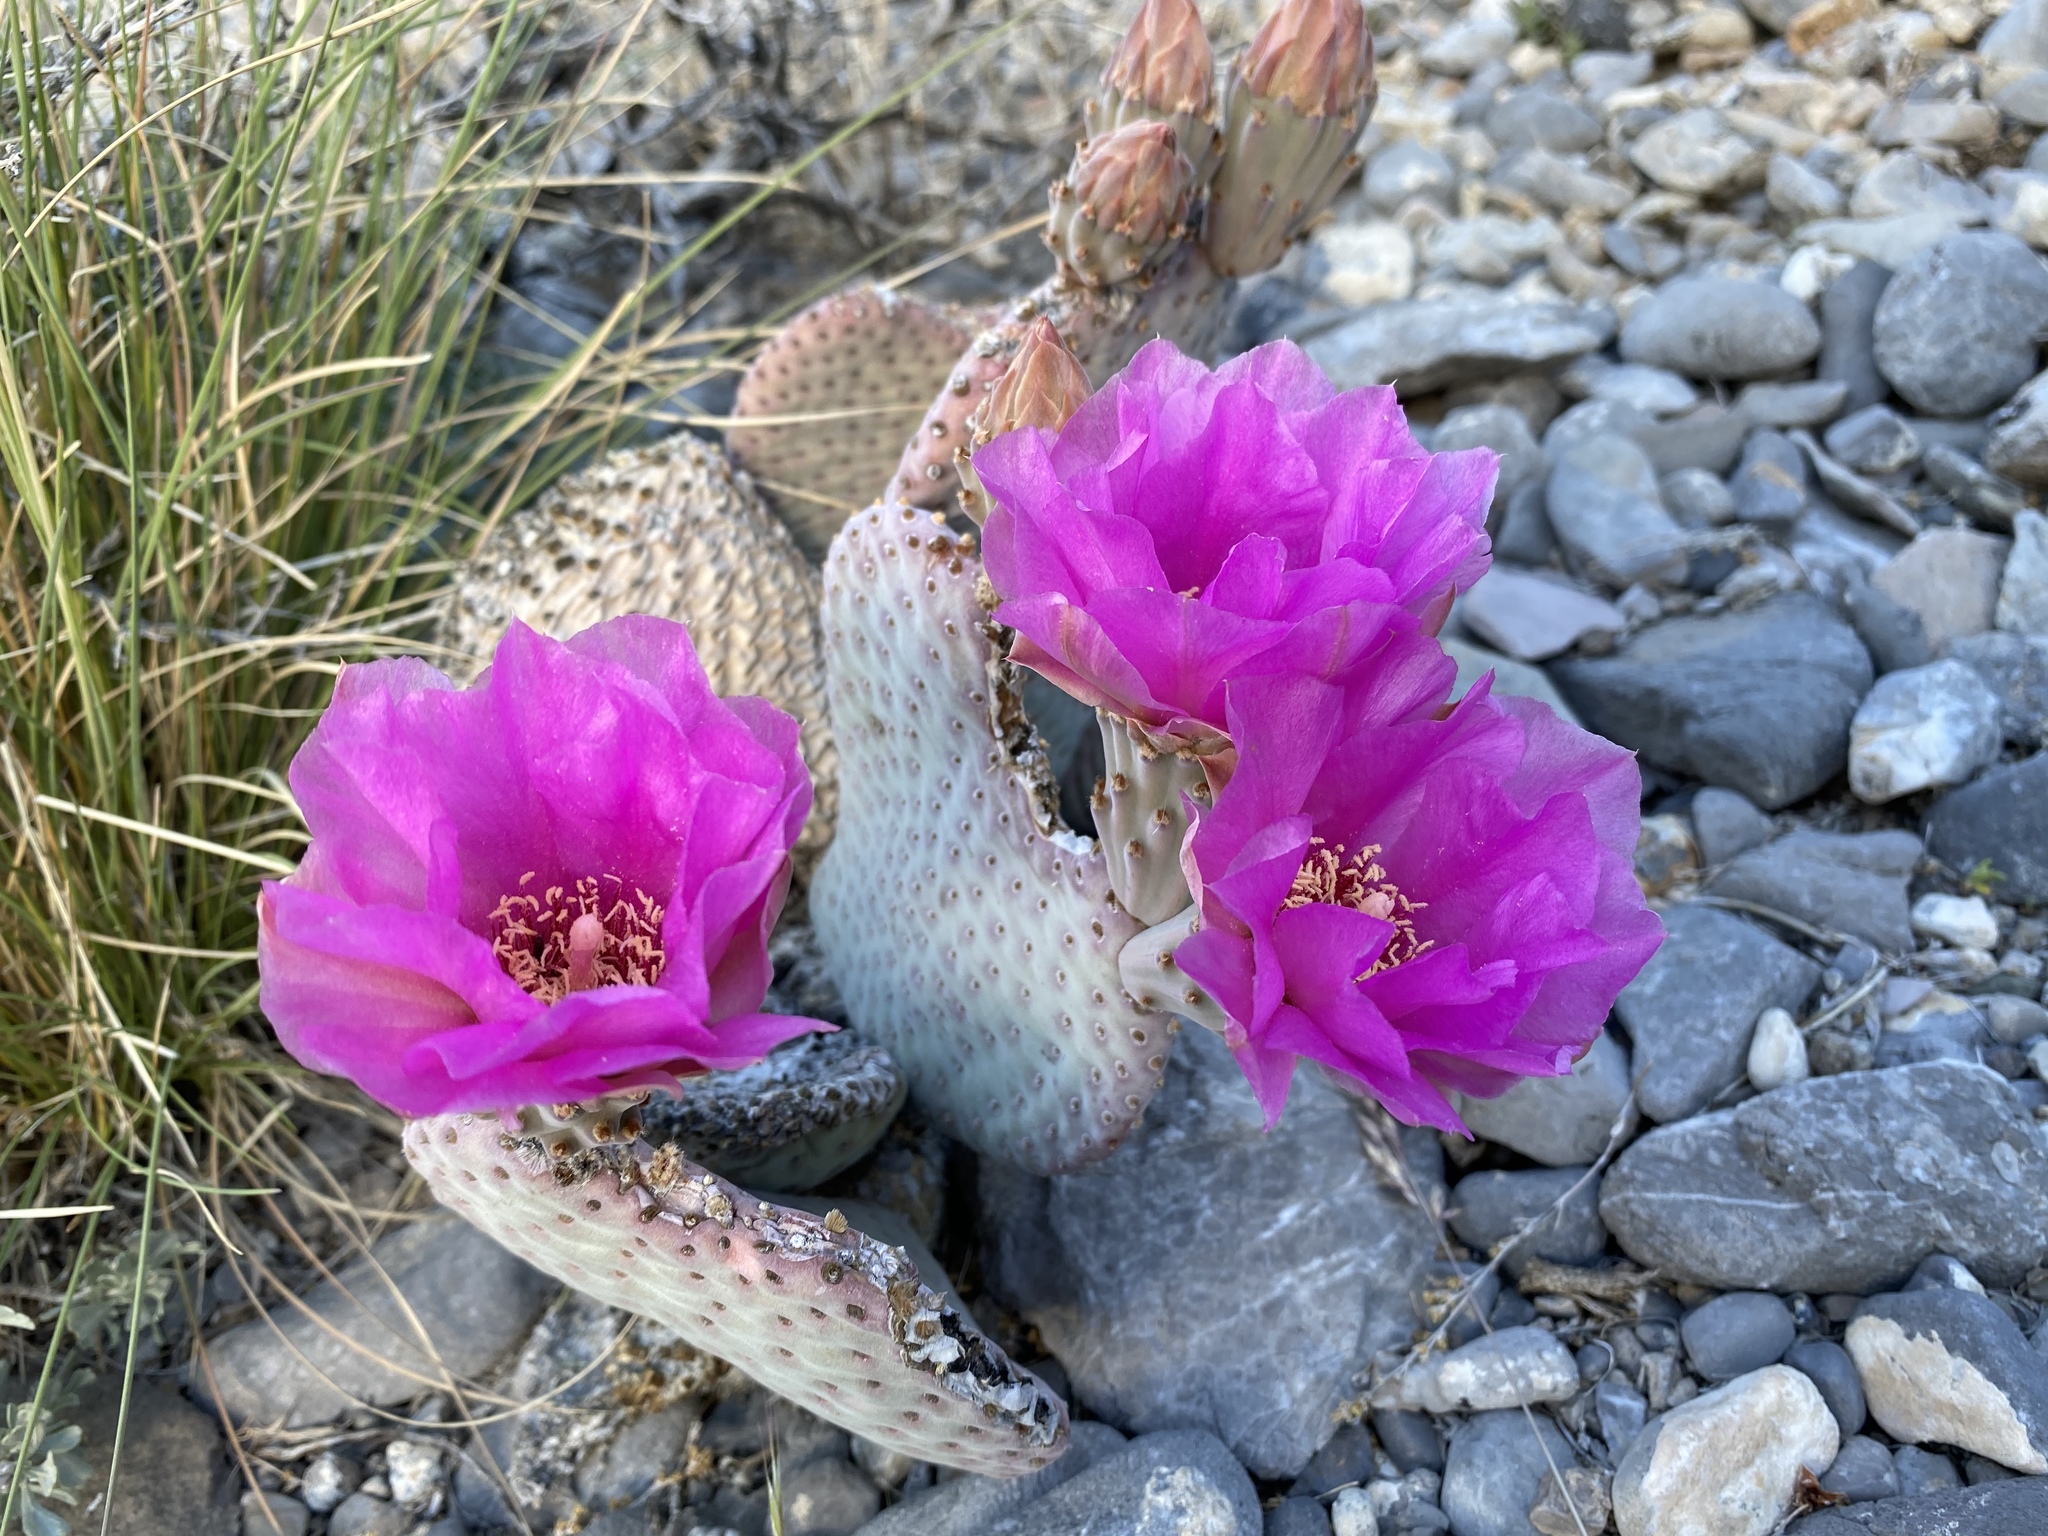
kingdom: Plantae
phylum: Tracheophyta
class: Magnoliopsida
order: Caryophyllales
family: Cactaceae
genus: Opuntia
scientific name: Opuntia basilaris
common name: Beavertail prickly-pear
